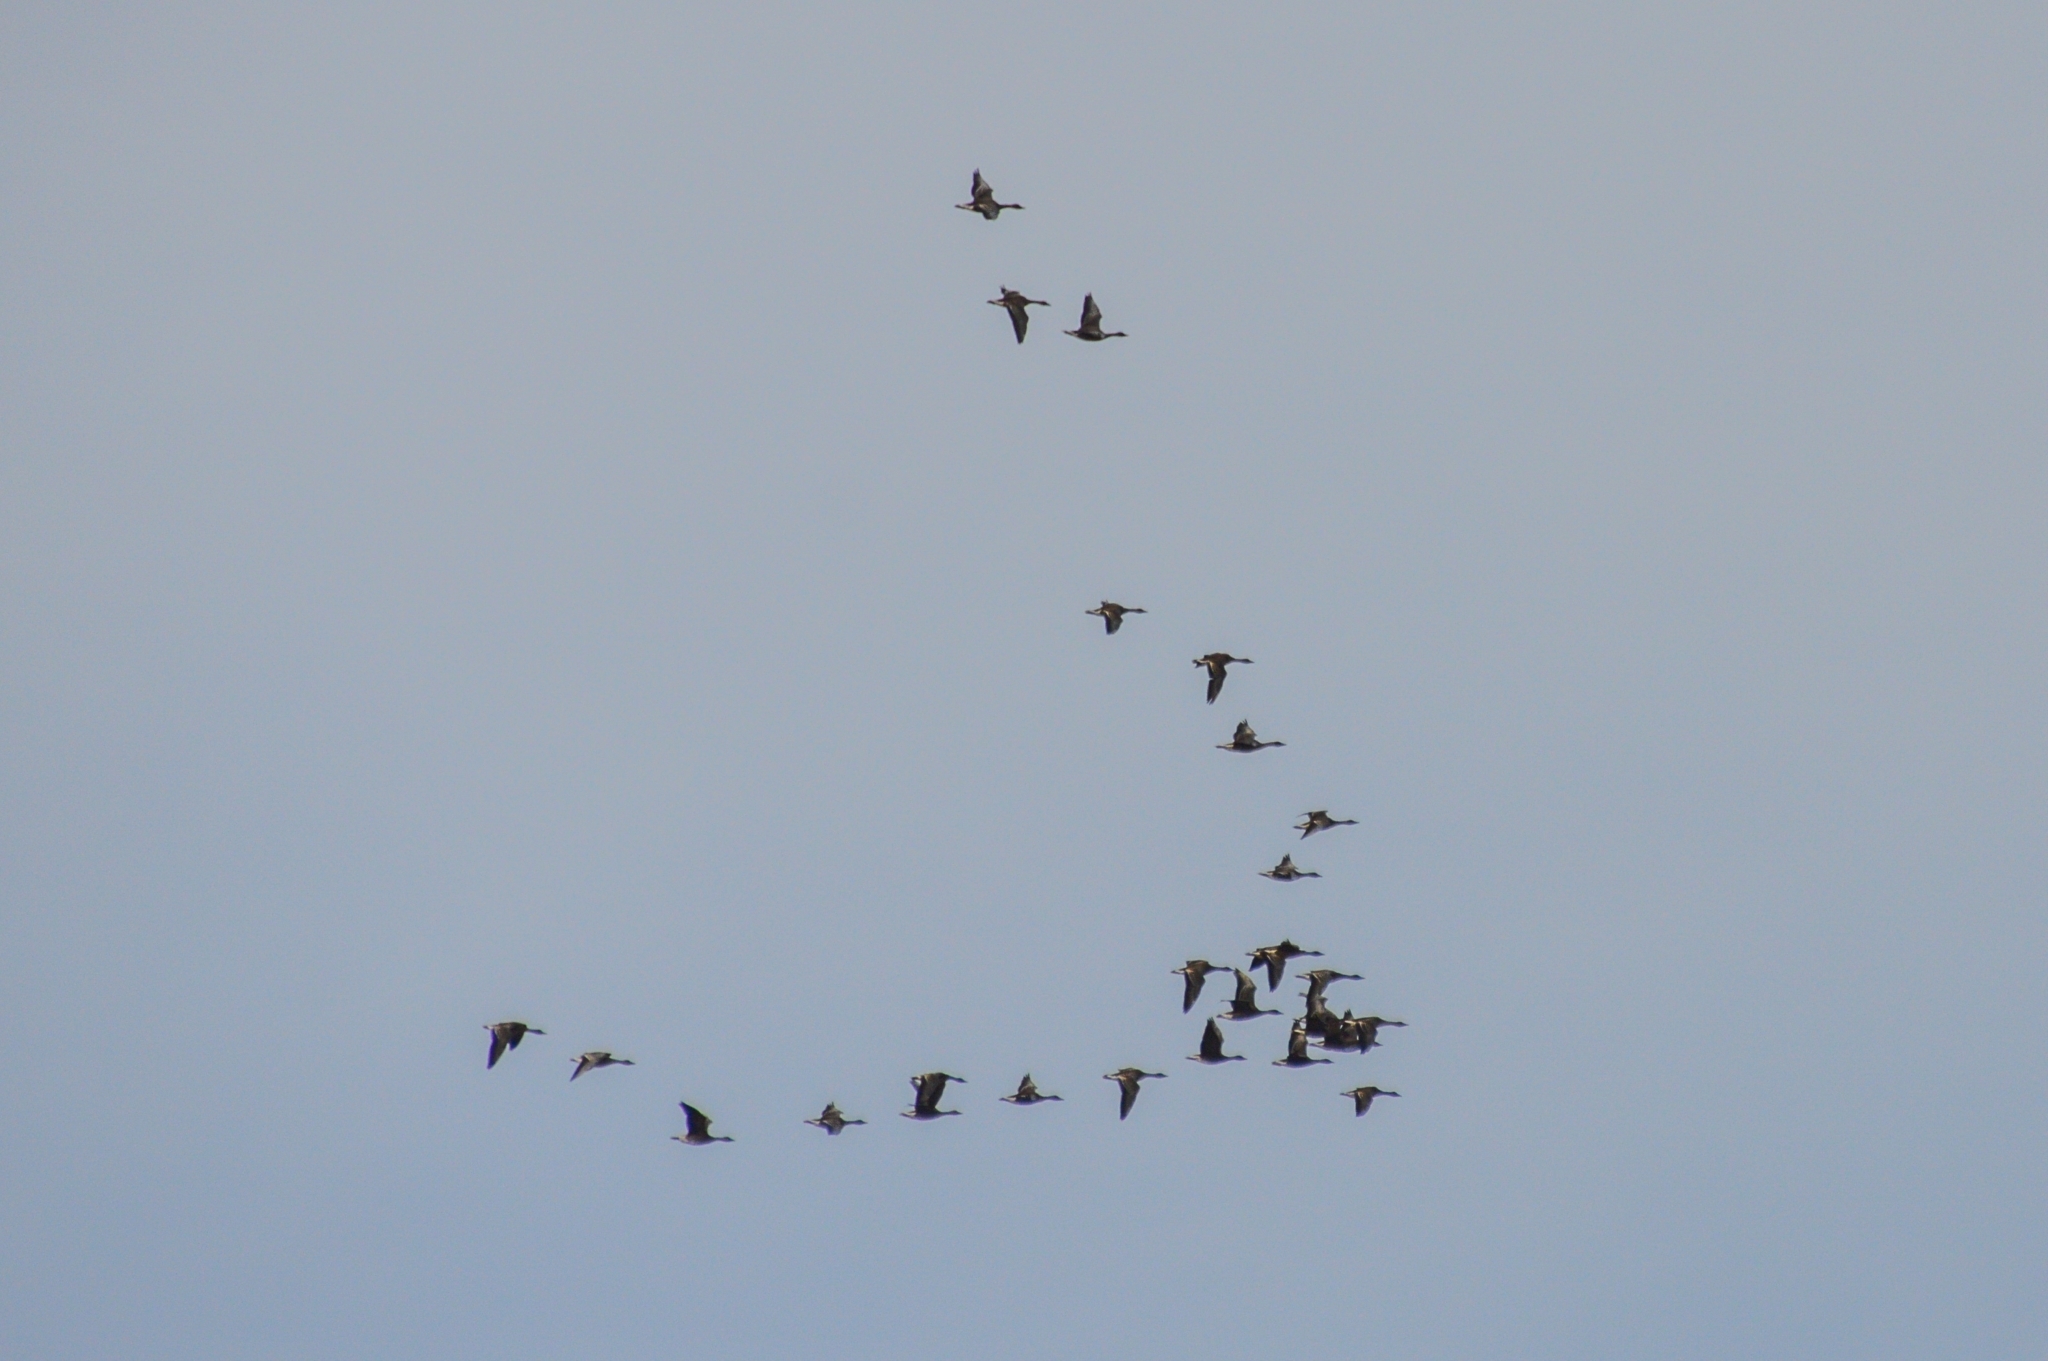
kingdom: Animalia
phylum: Chordata
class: Aves
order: Anseriformes
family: Anatidae
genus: Anser
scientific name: Anser fabalis
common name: Bean goose
